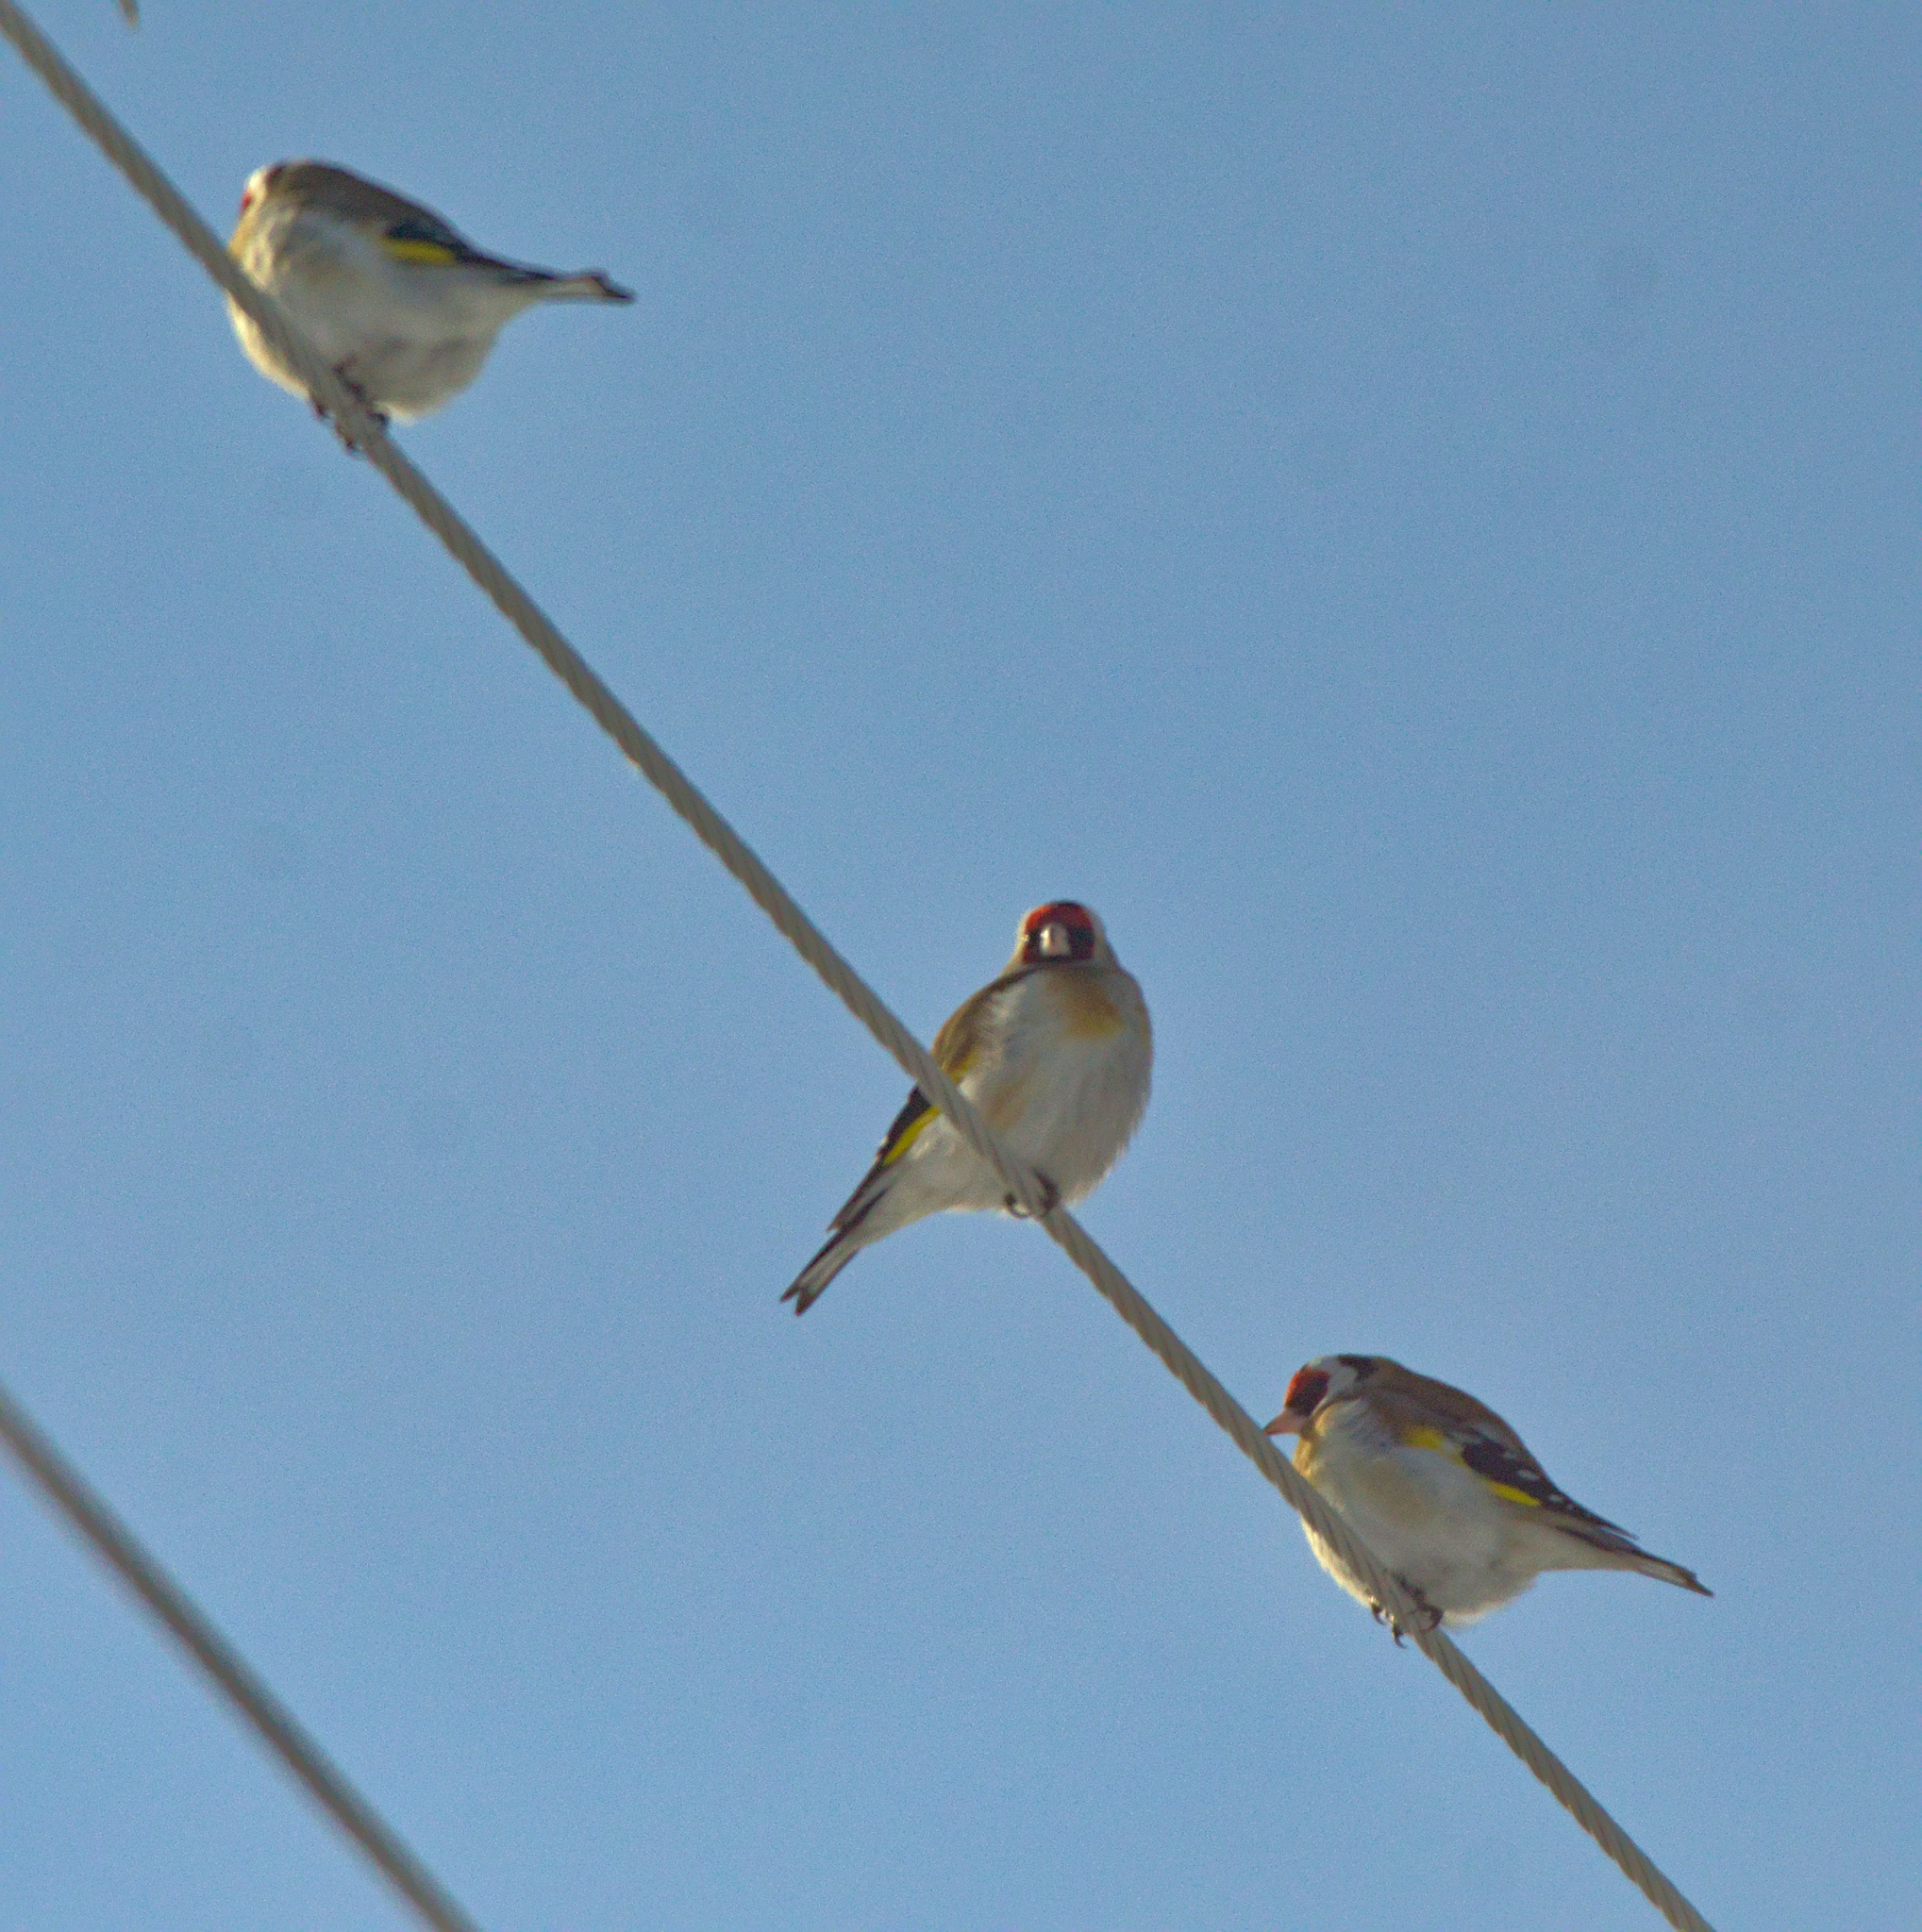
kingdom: Animalia
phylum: Chordata
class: Aves
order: Passeriformes
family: Fringillidae
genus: Carduelis
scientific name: Carduelis carduelis
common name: European goldfinch
